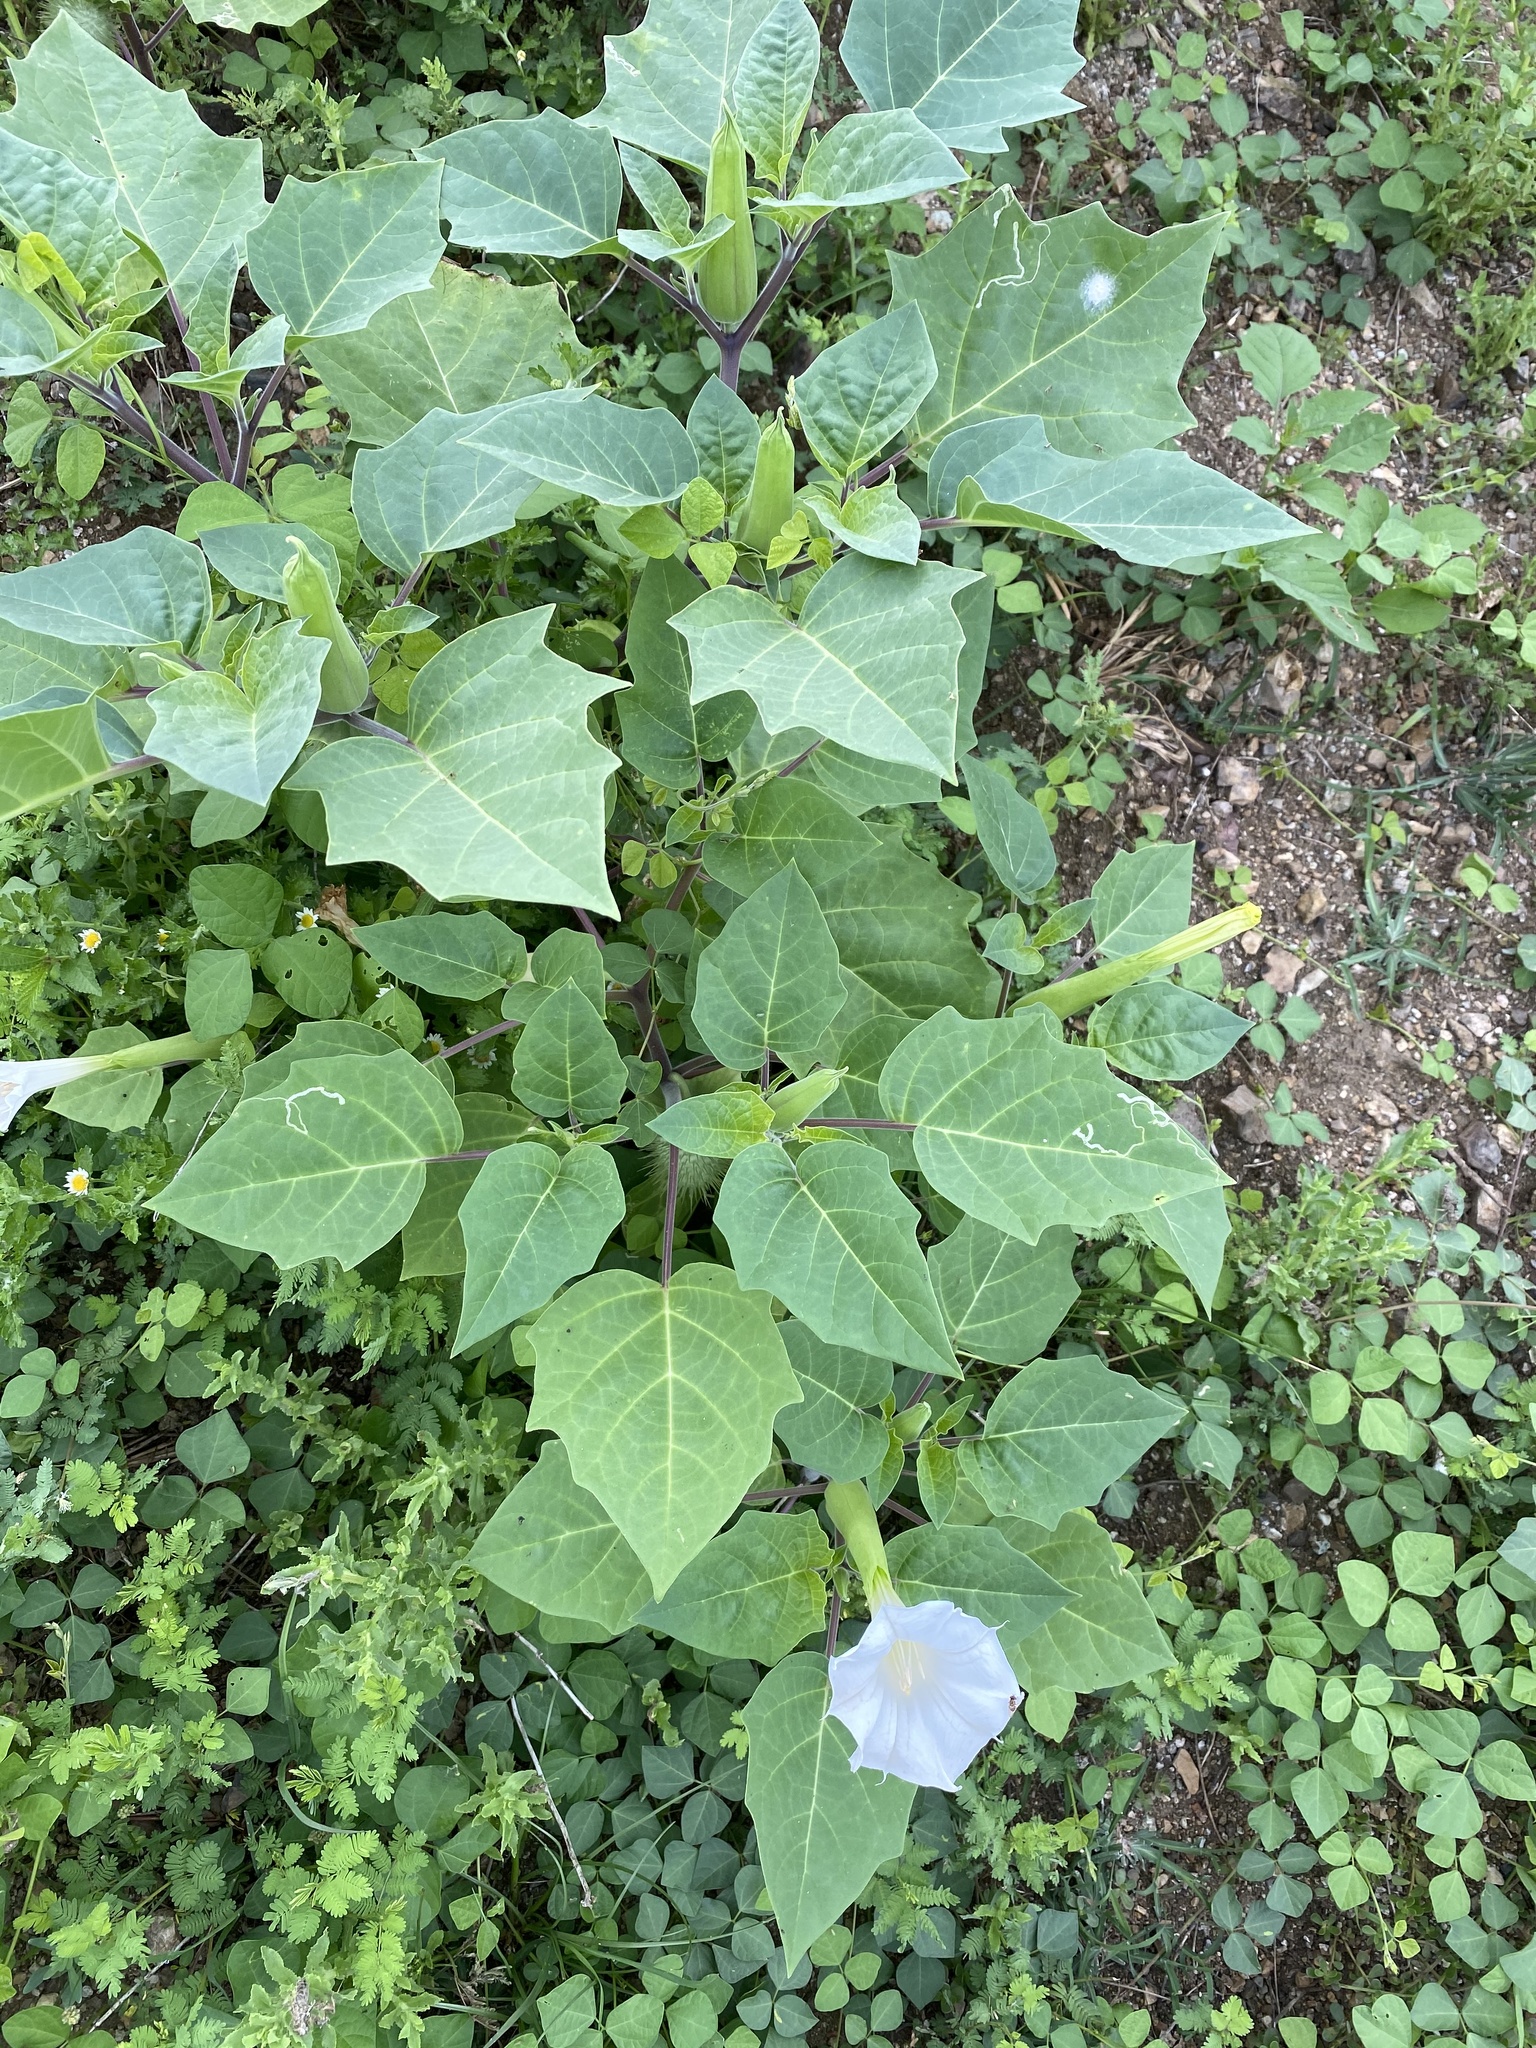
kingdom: Plantae
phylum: Tracheophyta
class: Magnoliopsida
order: Solanales
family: Solanaceae
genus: Datura
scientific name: Datura innoxia
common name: Downy thorn-apple
